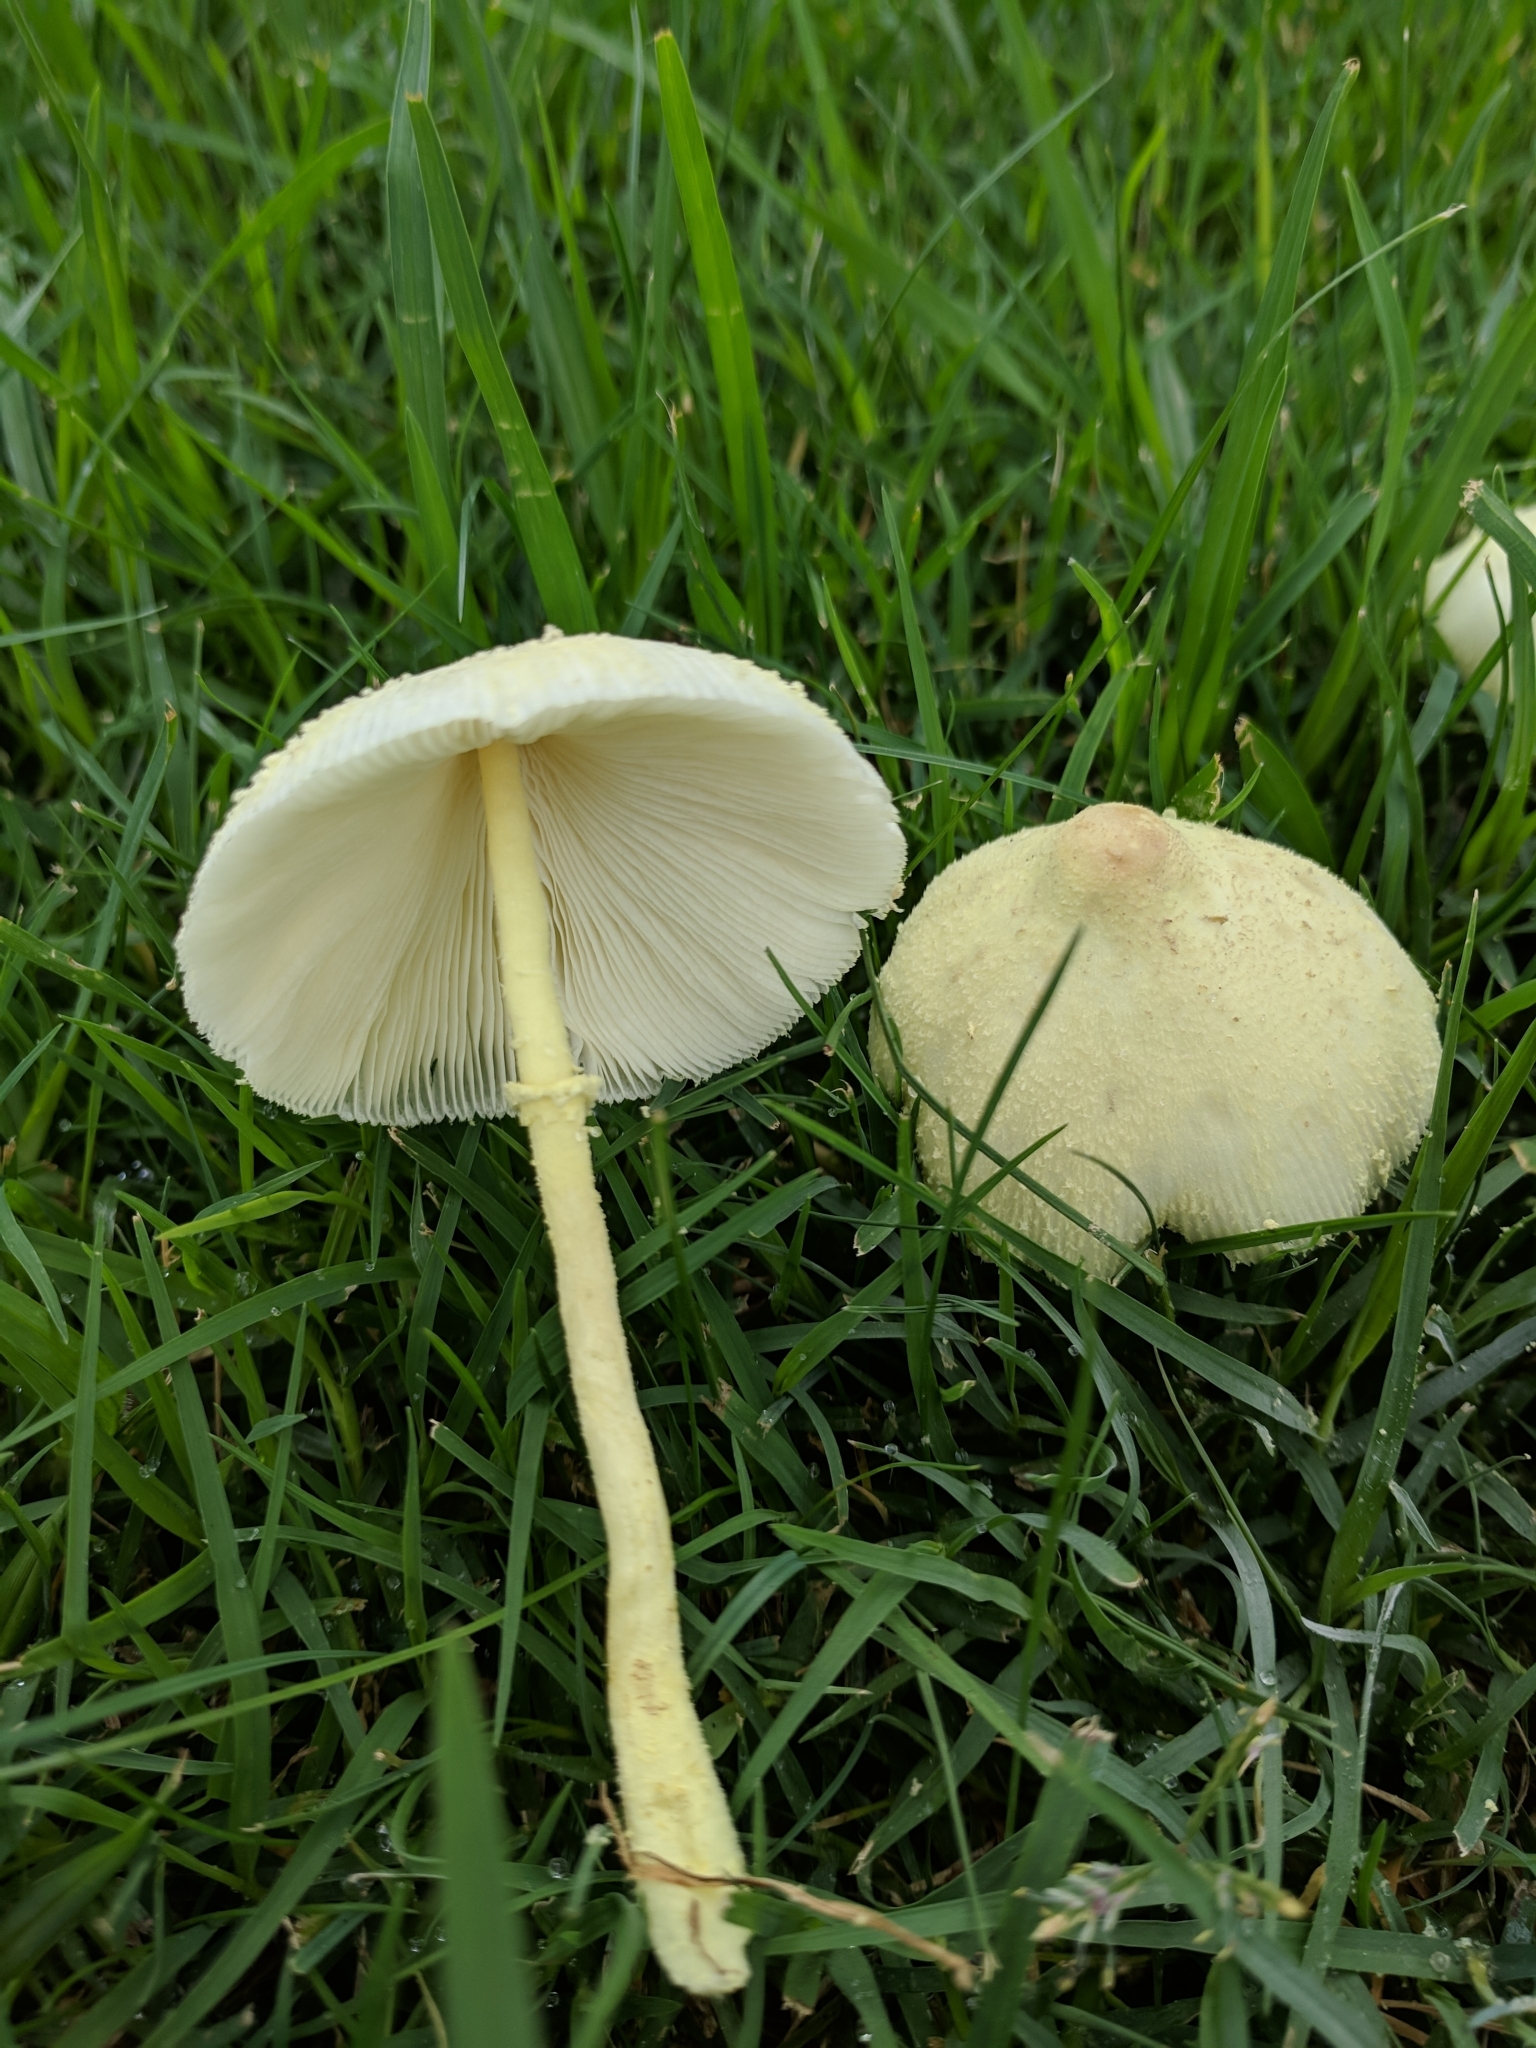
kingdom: Fungi
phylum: Basidiomycota
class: Agaricomycetes
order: Agaricales
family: Agaricaceae
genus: Leucocoprinus
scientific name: Leucocoprinus birnbaumii
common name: Plantpot dapperling
